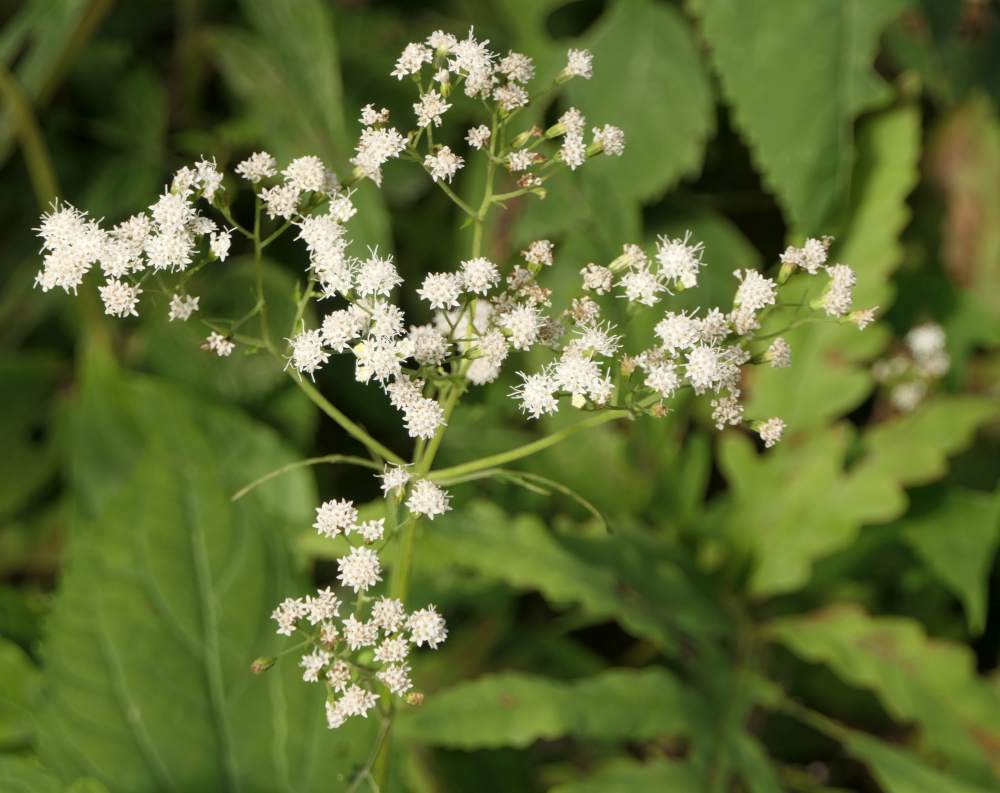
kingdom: Plantae
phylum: Tracheophyta
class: Magnoliopsida
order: Asterales
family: Asteraceae
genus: Ageratina
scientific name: Ageratina altissima
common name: White snakeroot
